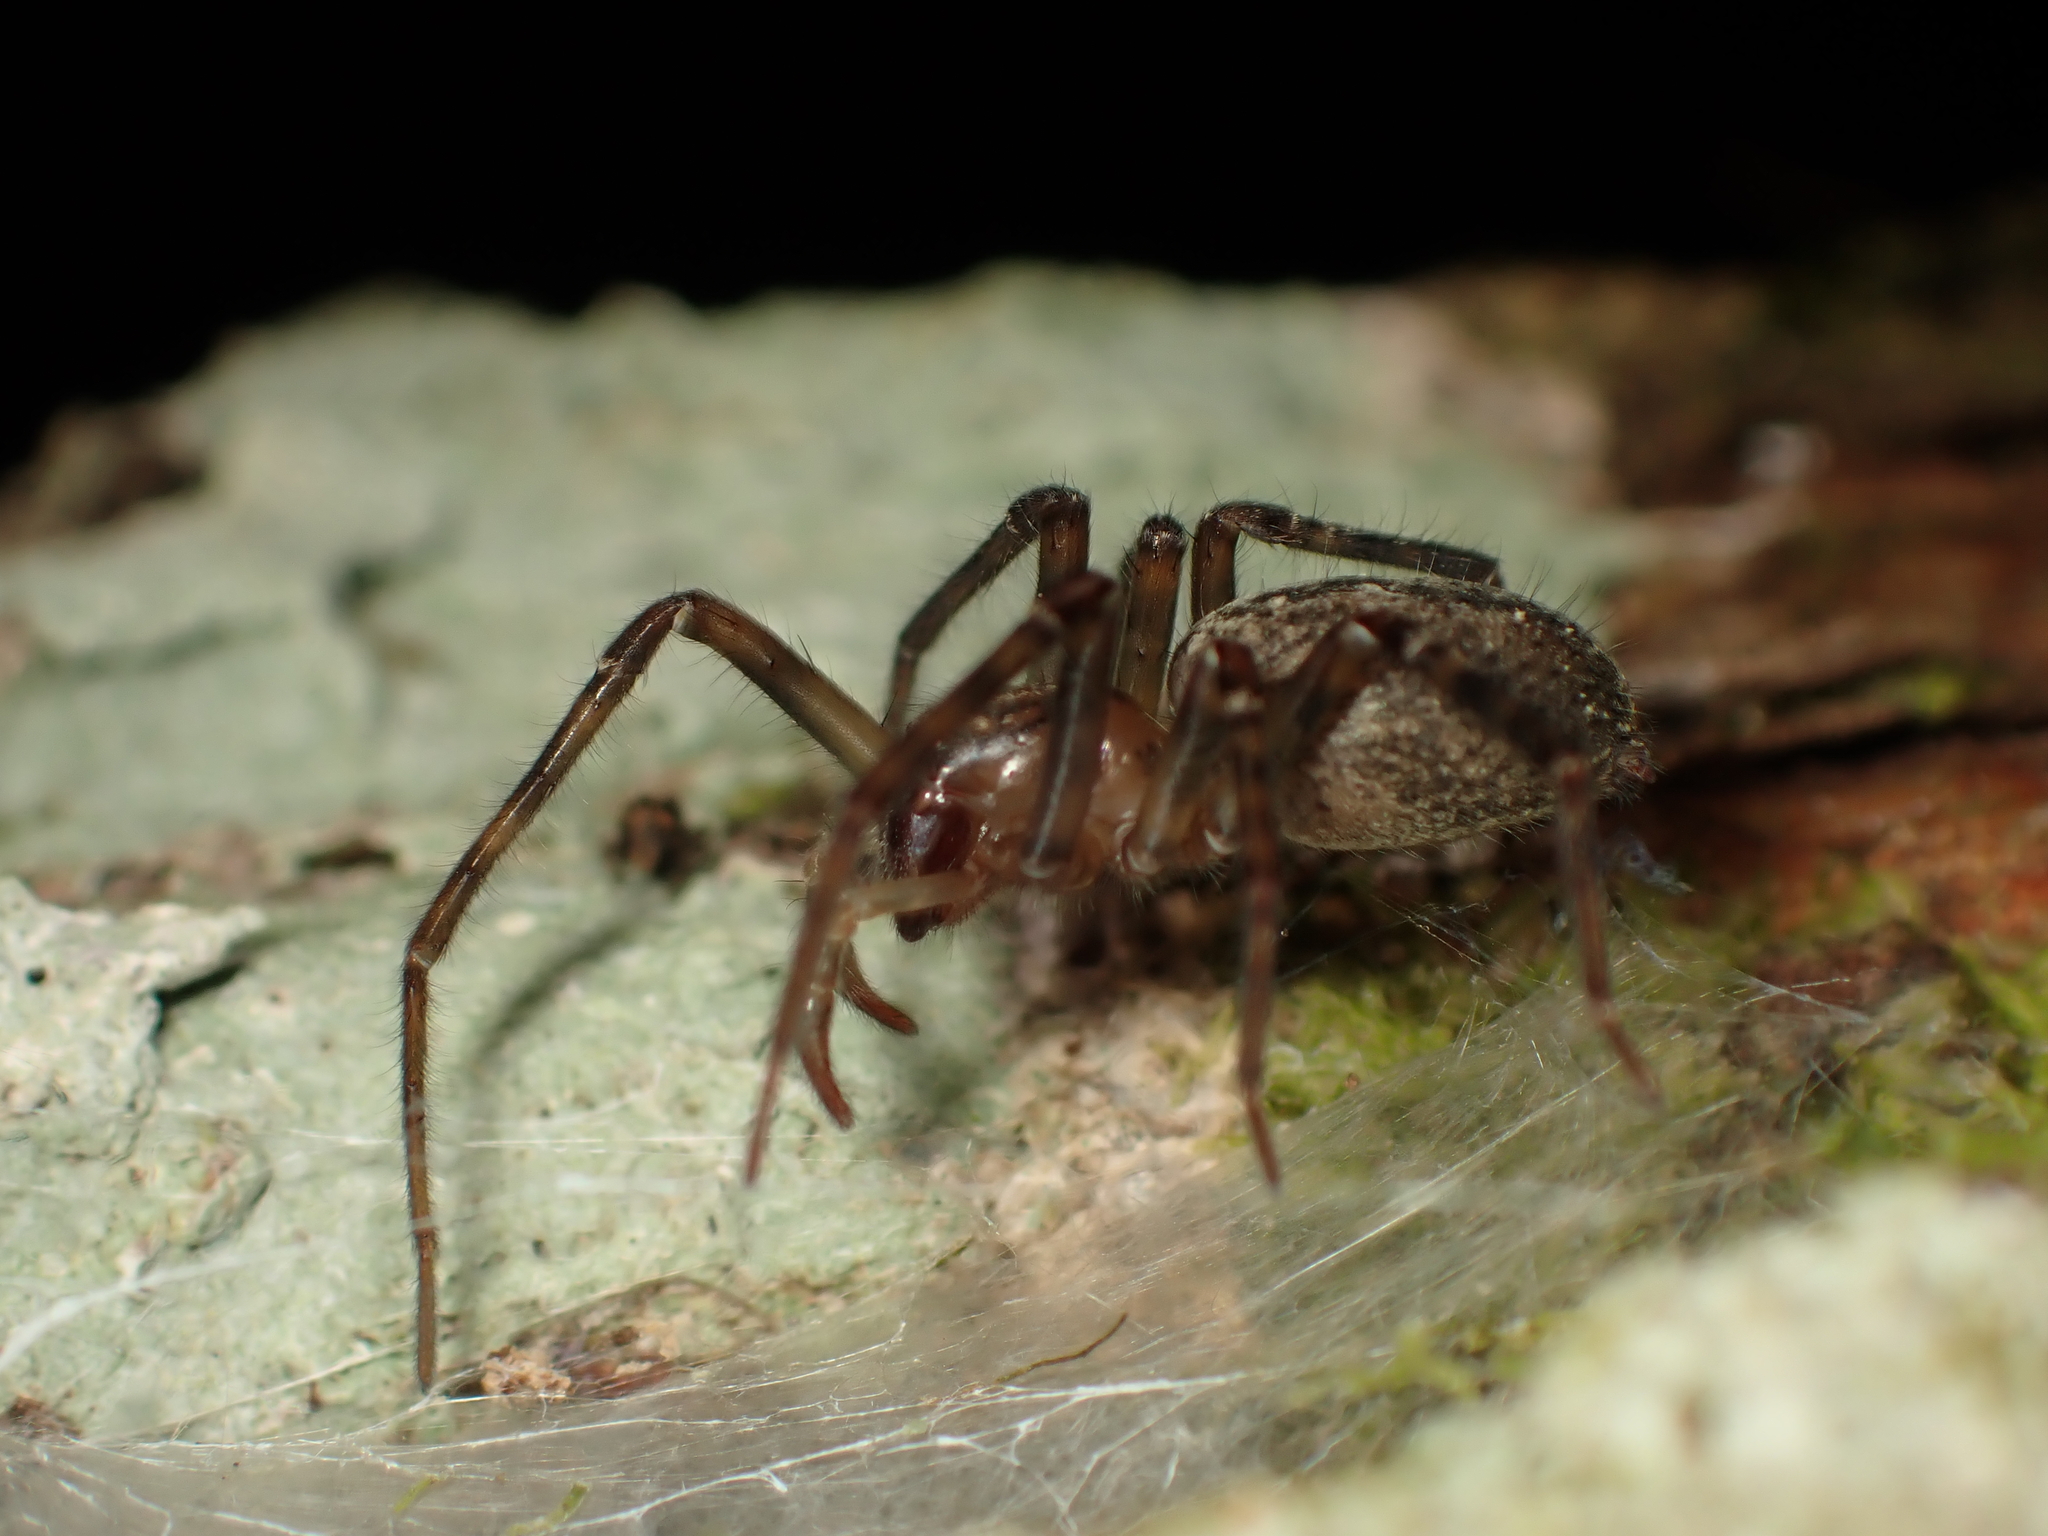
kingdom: Animalia
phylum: Arthropoda
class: Arachnida
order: Araneae
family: Desidae
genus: Nuisiana
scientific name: Nuisiana arboris
